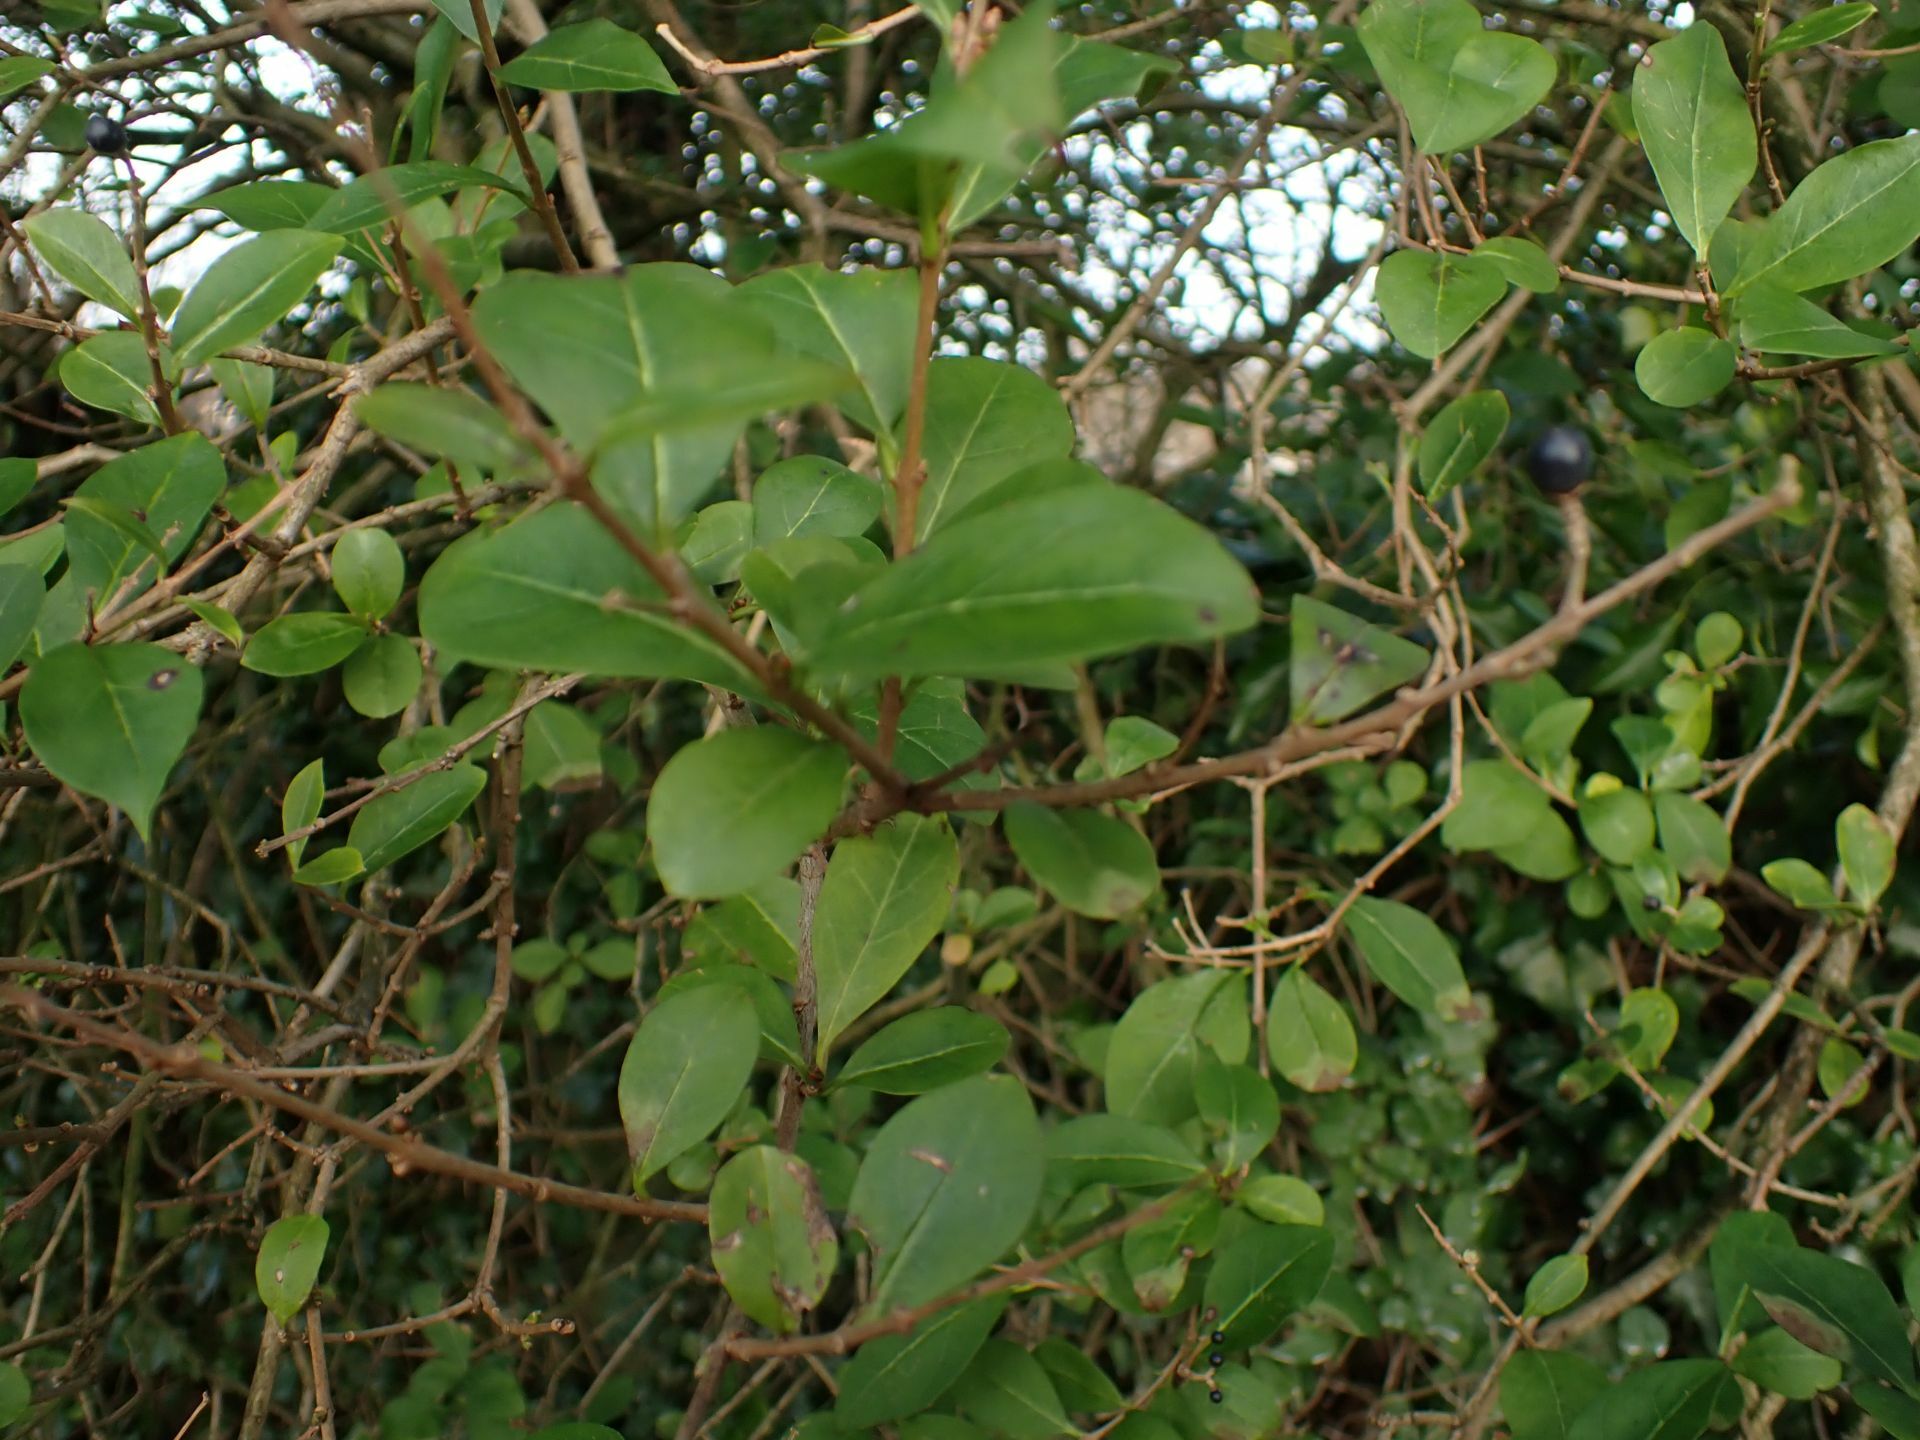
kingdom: Plantae
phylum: Tracheophyta
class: Magnoliopsida
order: Lamiales
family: Oleaceae
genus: Ligustrum
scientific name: Ligustrum ovalifolium
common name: California privet
